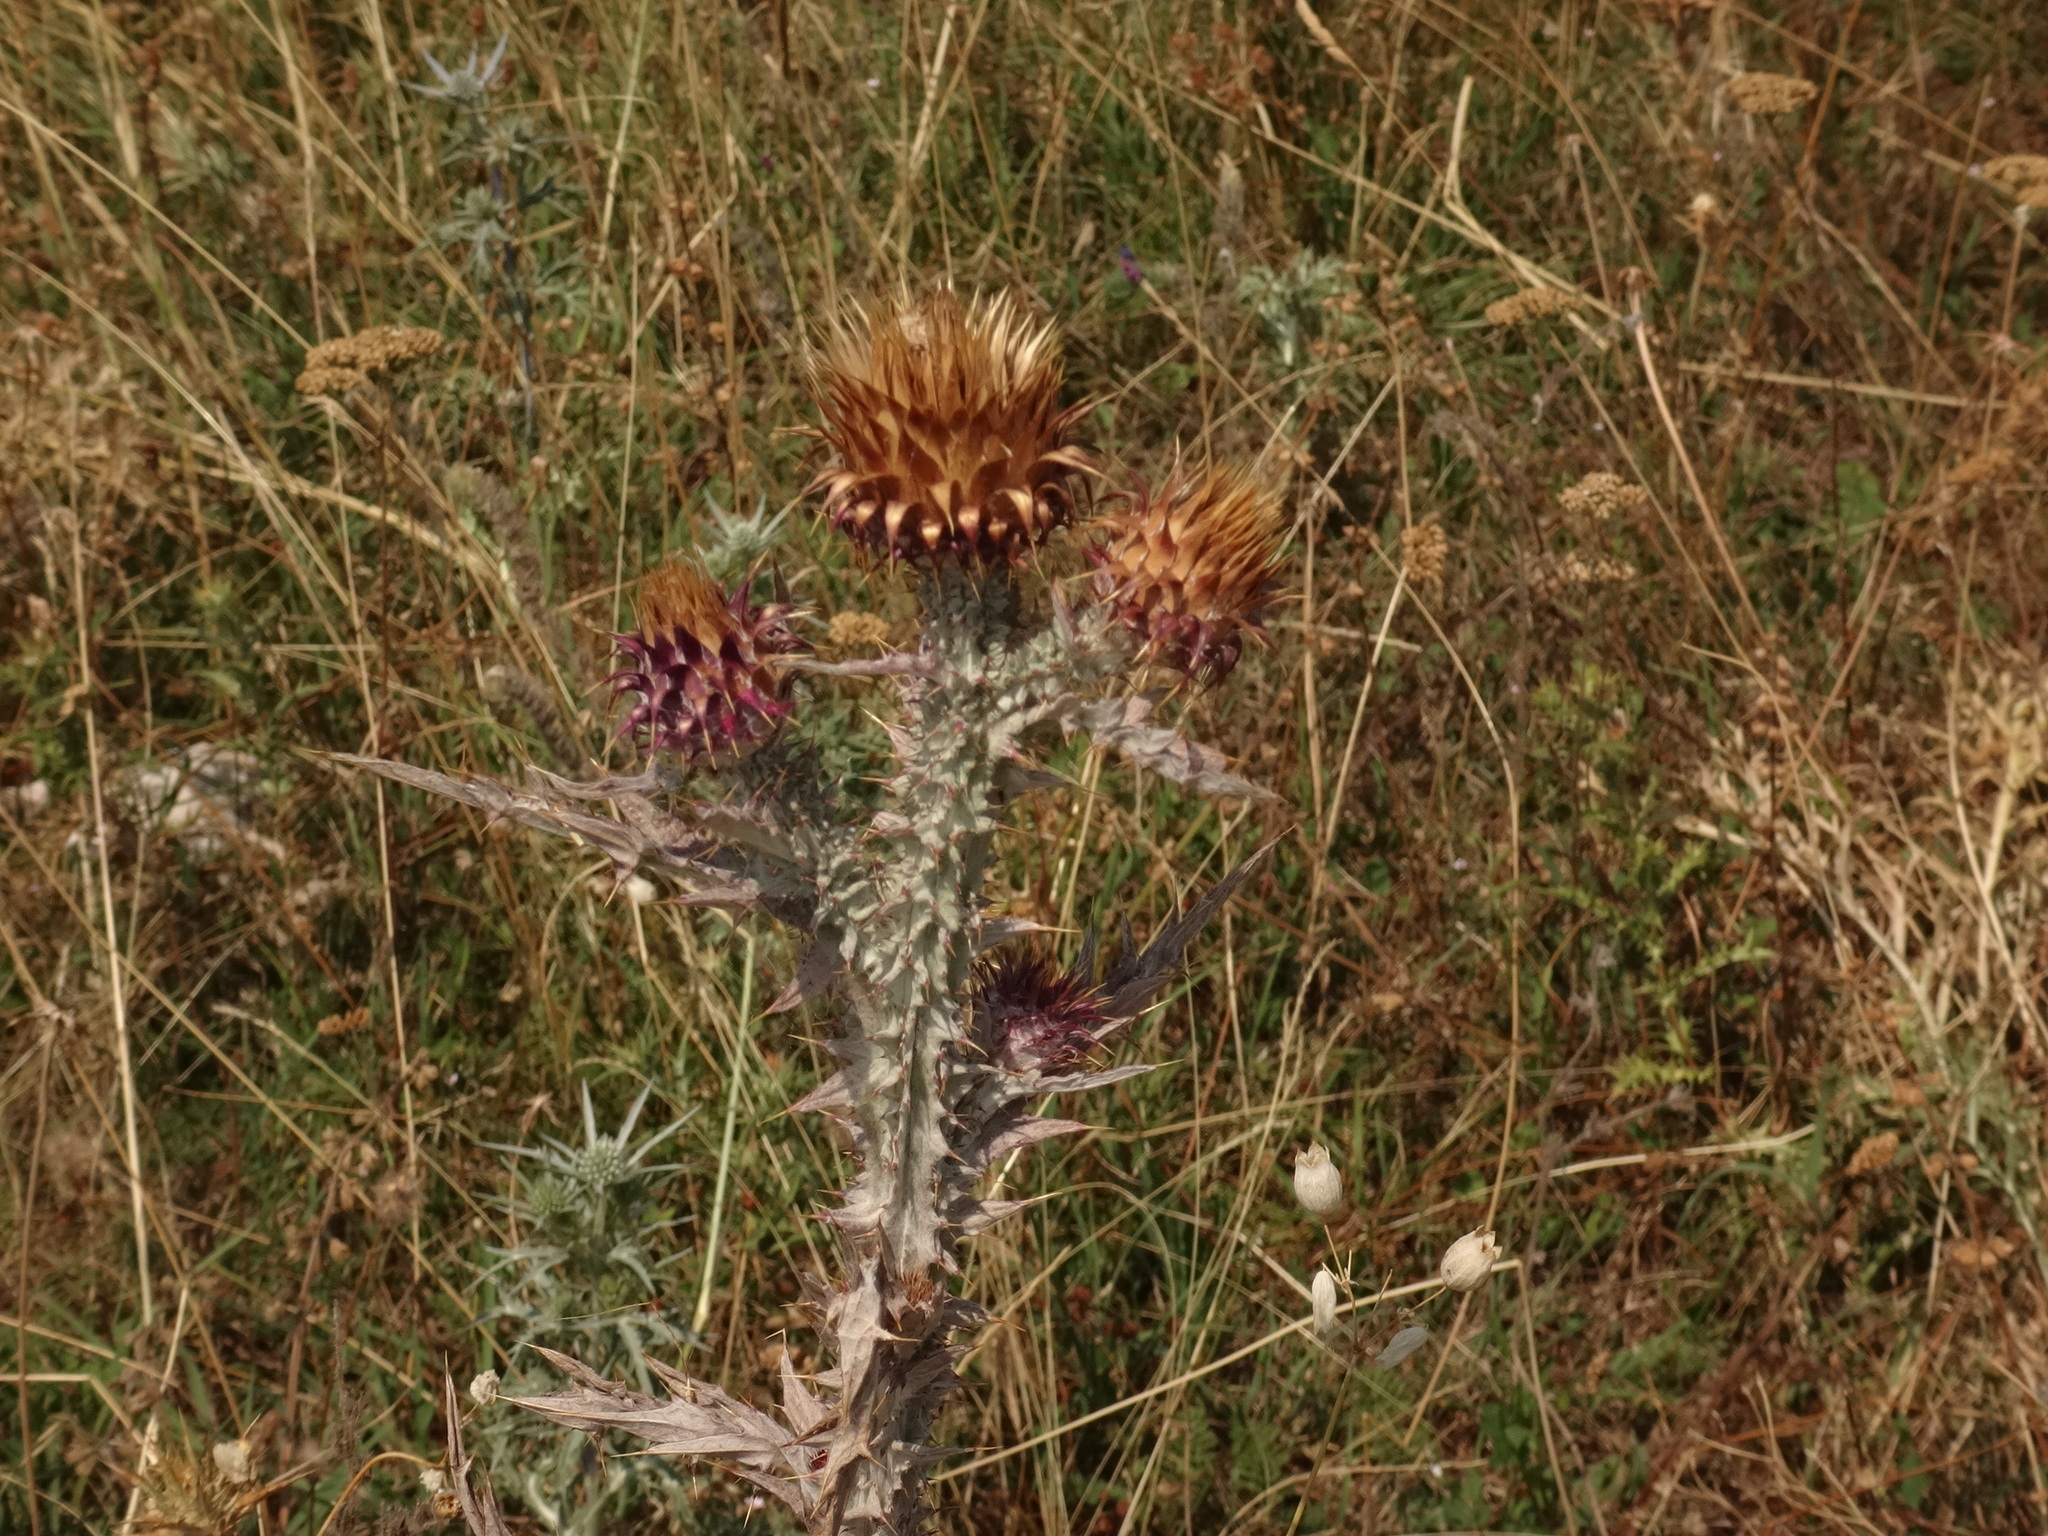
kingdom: Plantae
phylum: Tracheophyta
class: Magnoliopsida
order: Asterales
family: Asteraceae
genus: Onopordum
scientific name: Onopordum illyricum
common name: Illyrian thistle
